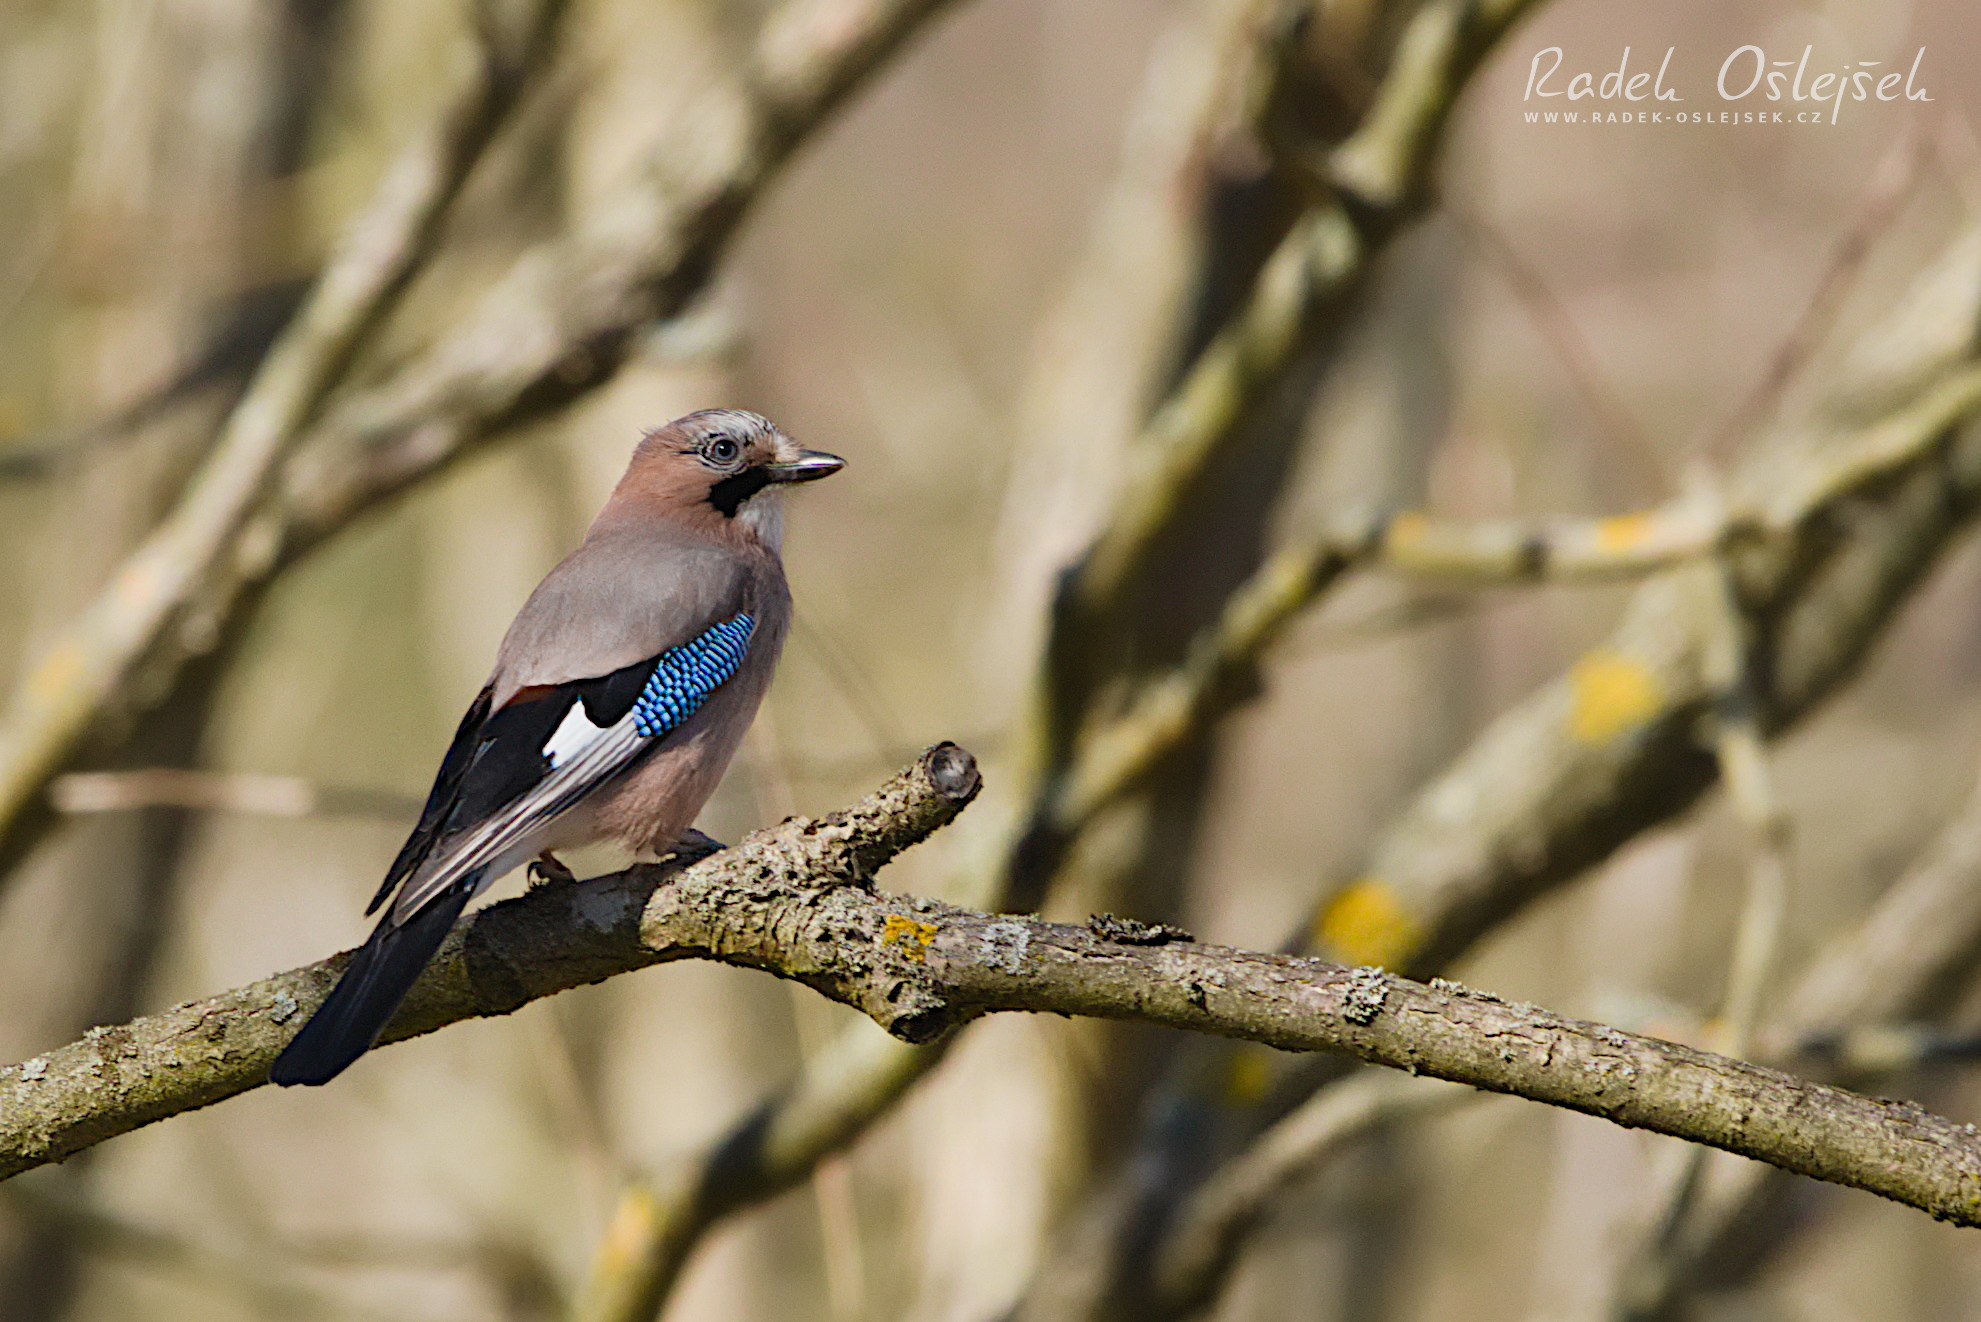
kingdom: Animalia
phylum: Chordata
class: Aves
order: Passeriformes
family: Corvidae
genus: Garrulus
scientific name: Garrulus glandarius
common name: Eurasian jay
